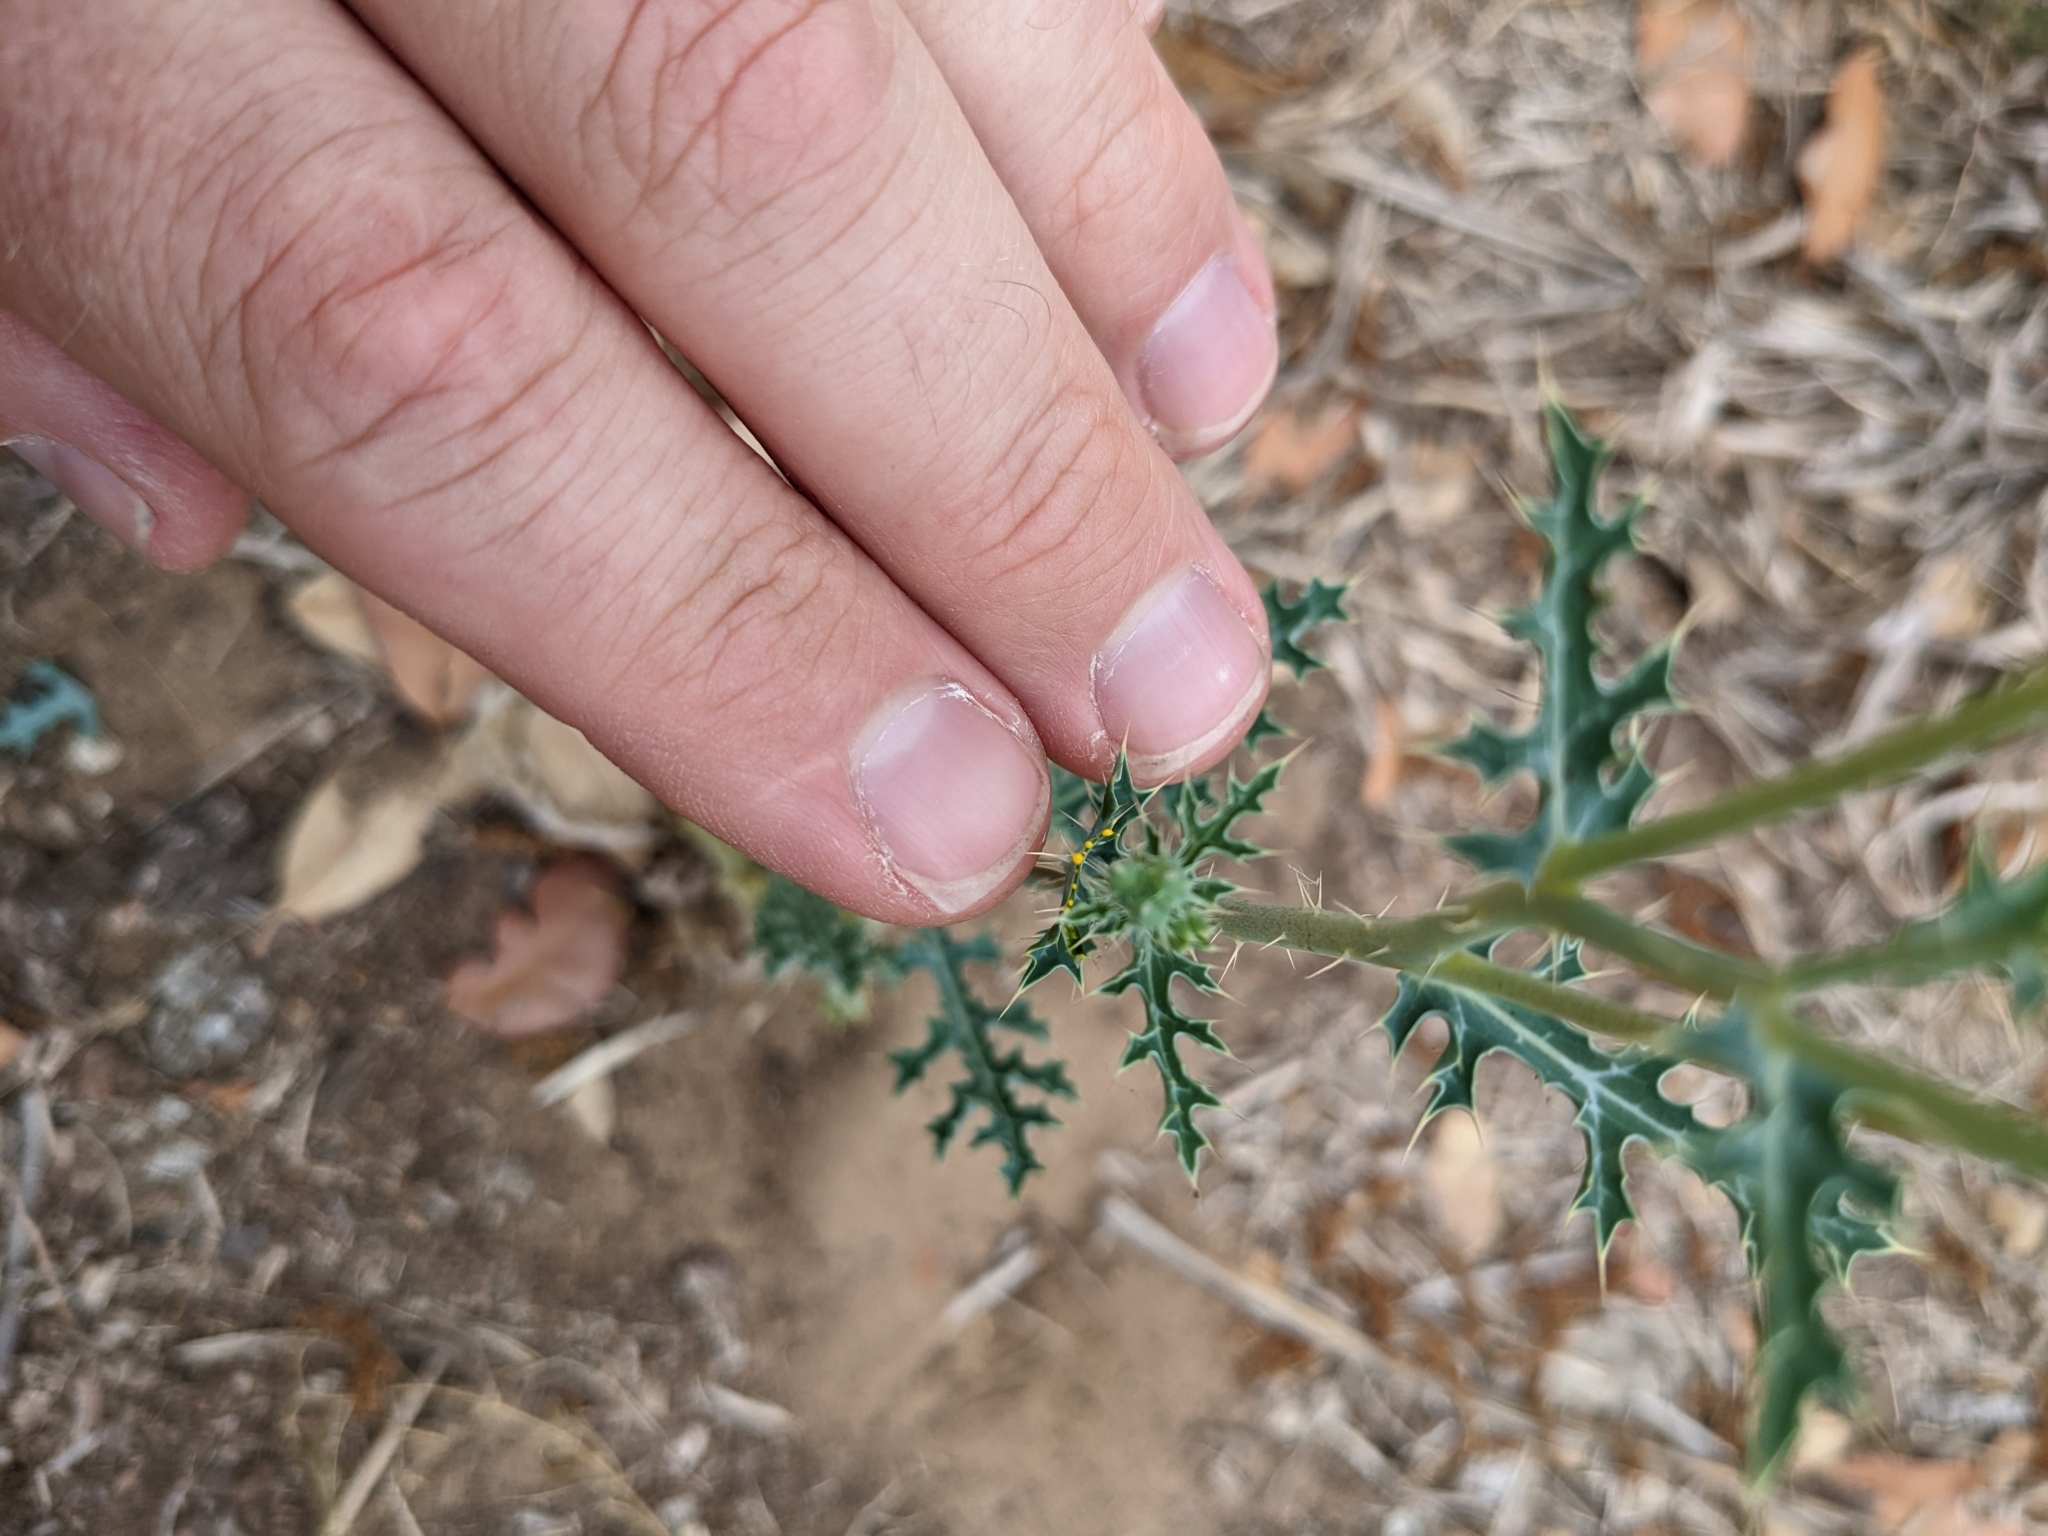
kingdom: Plantae
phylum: Tracheophyta
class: Magnoliopsida
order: Ranunculales
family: Papaveraceae
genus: Argemone
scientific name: Argemone albiflora
